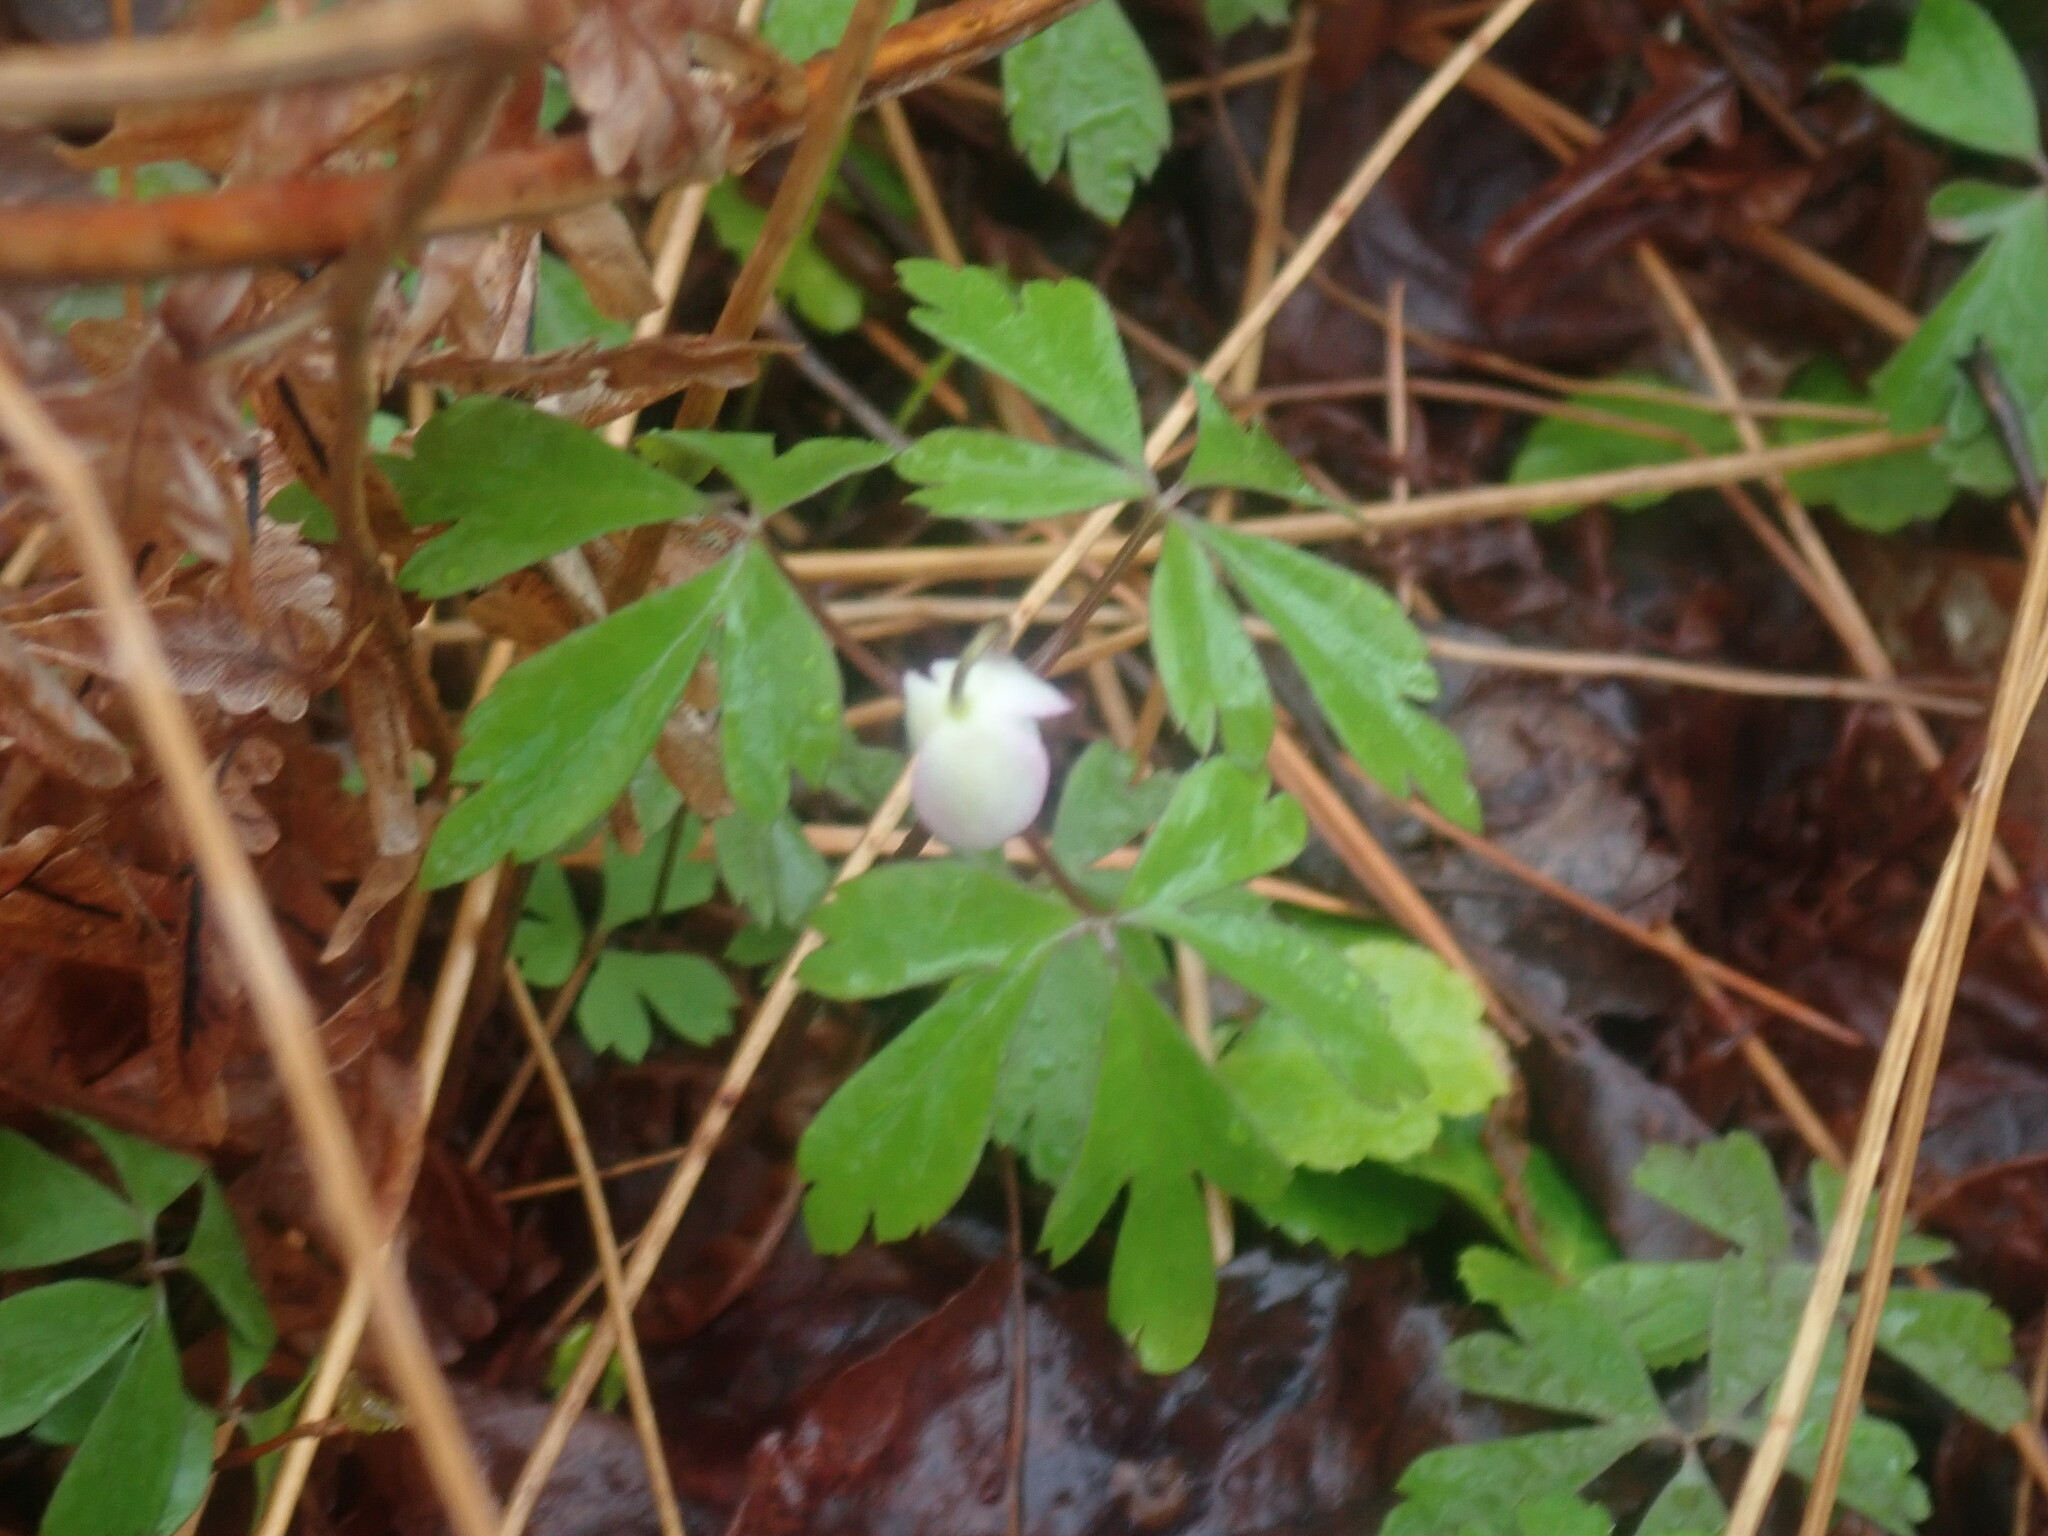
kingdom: Plantae
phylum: Tracheophyta
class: Magnoliopsida
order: Ranunculales
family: Ranunculaceae
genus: Anemone
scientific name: Anemone quinquefolia
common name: Wood anemone
